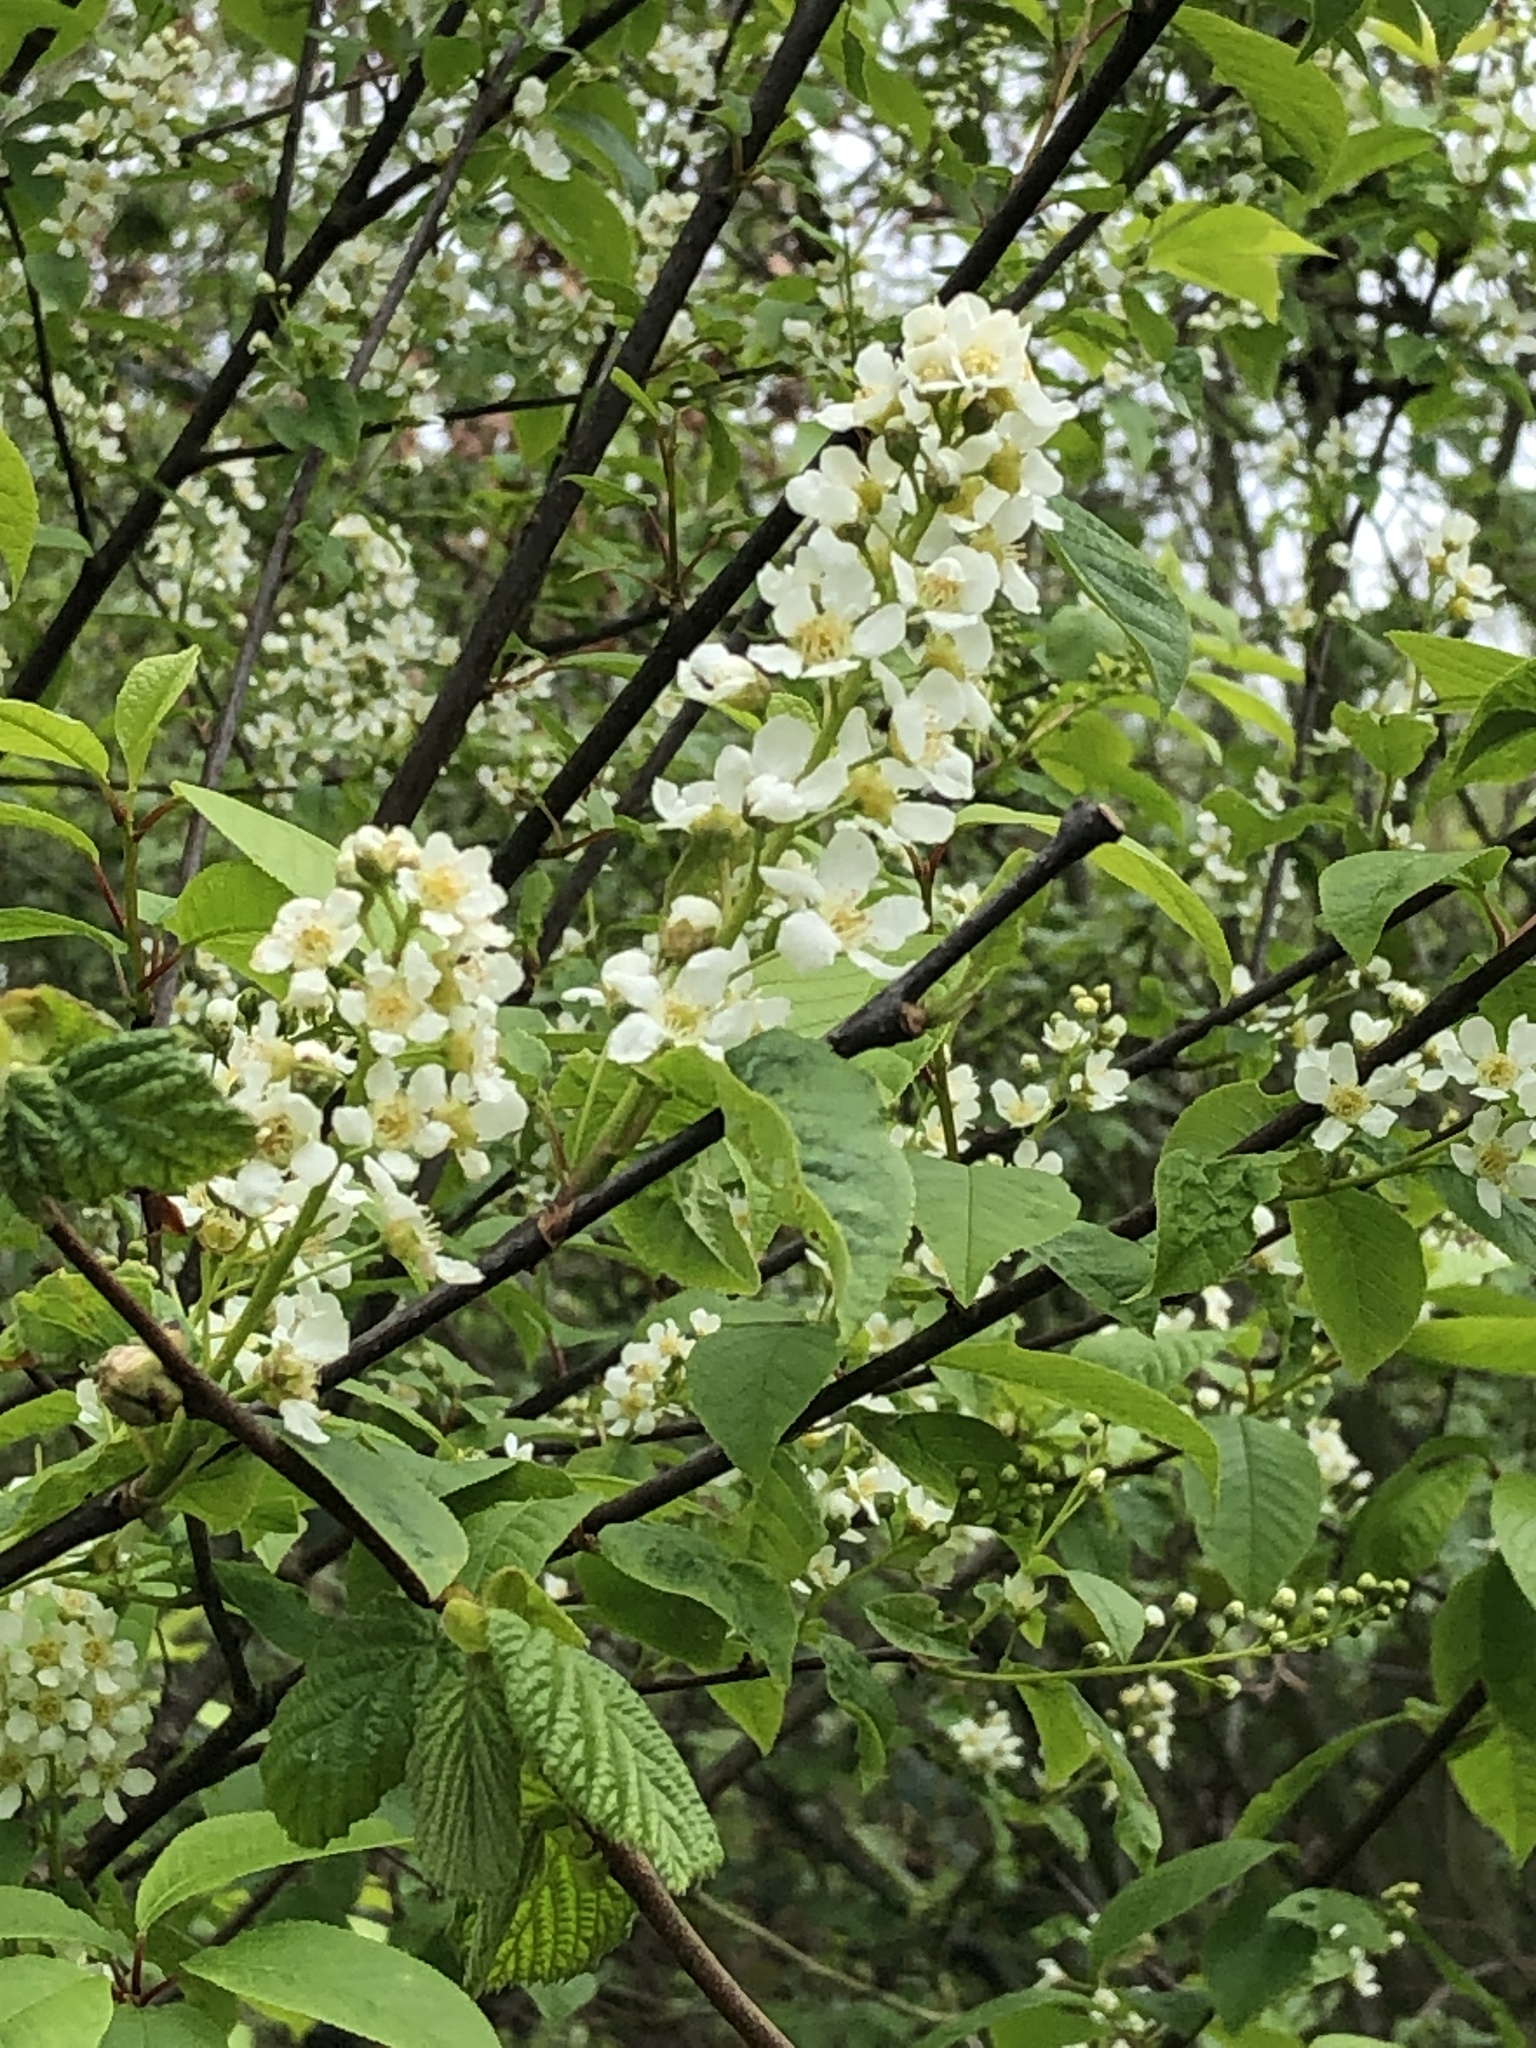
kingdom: Plantae
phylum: Tracheophyta
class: Magnoliopsida
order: Rosales
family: Rosaceae
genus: Prunus
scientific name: Prunus padus
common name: Bird cherry
